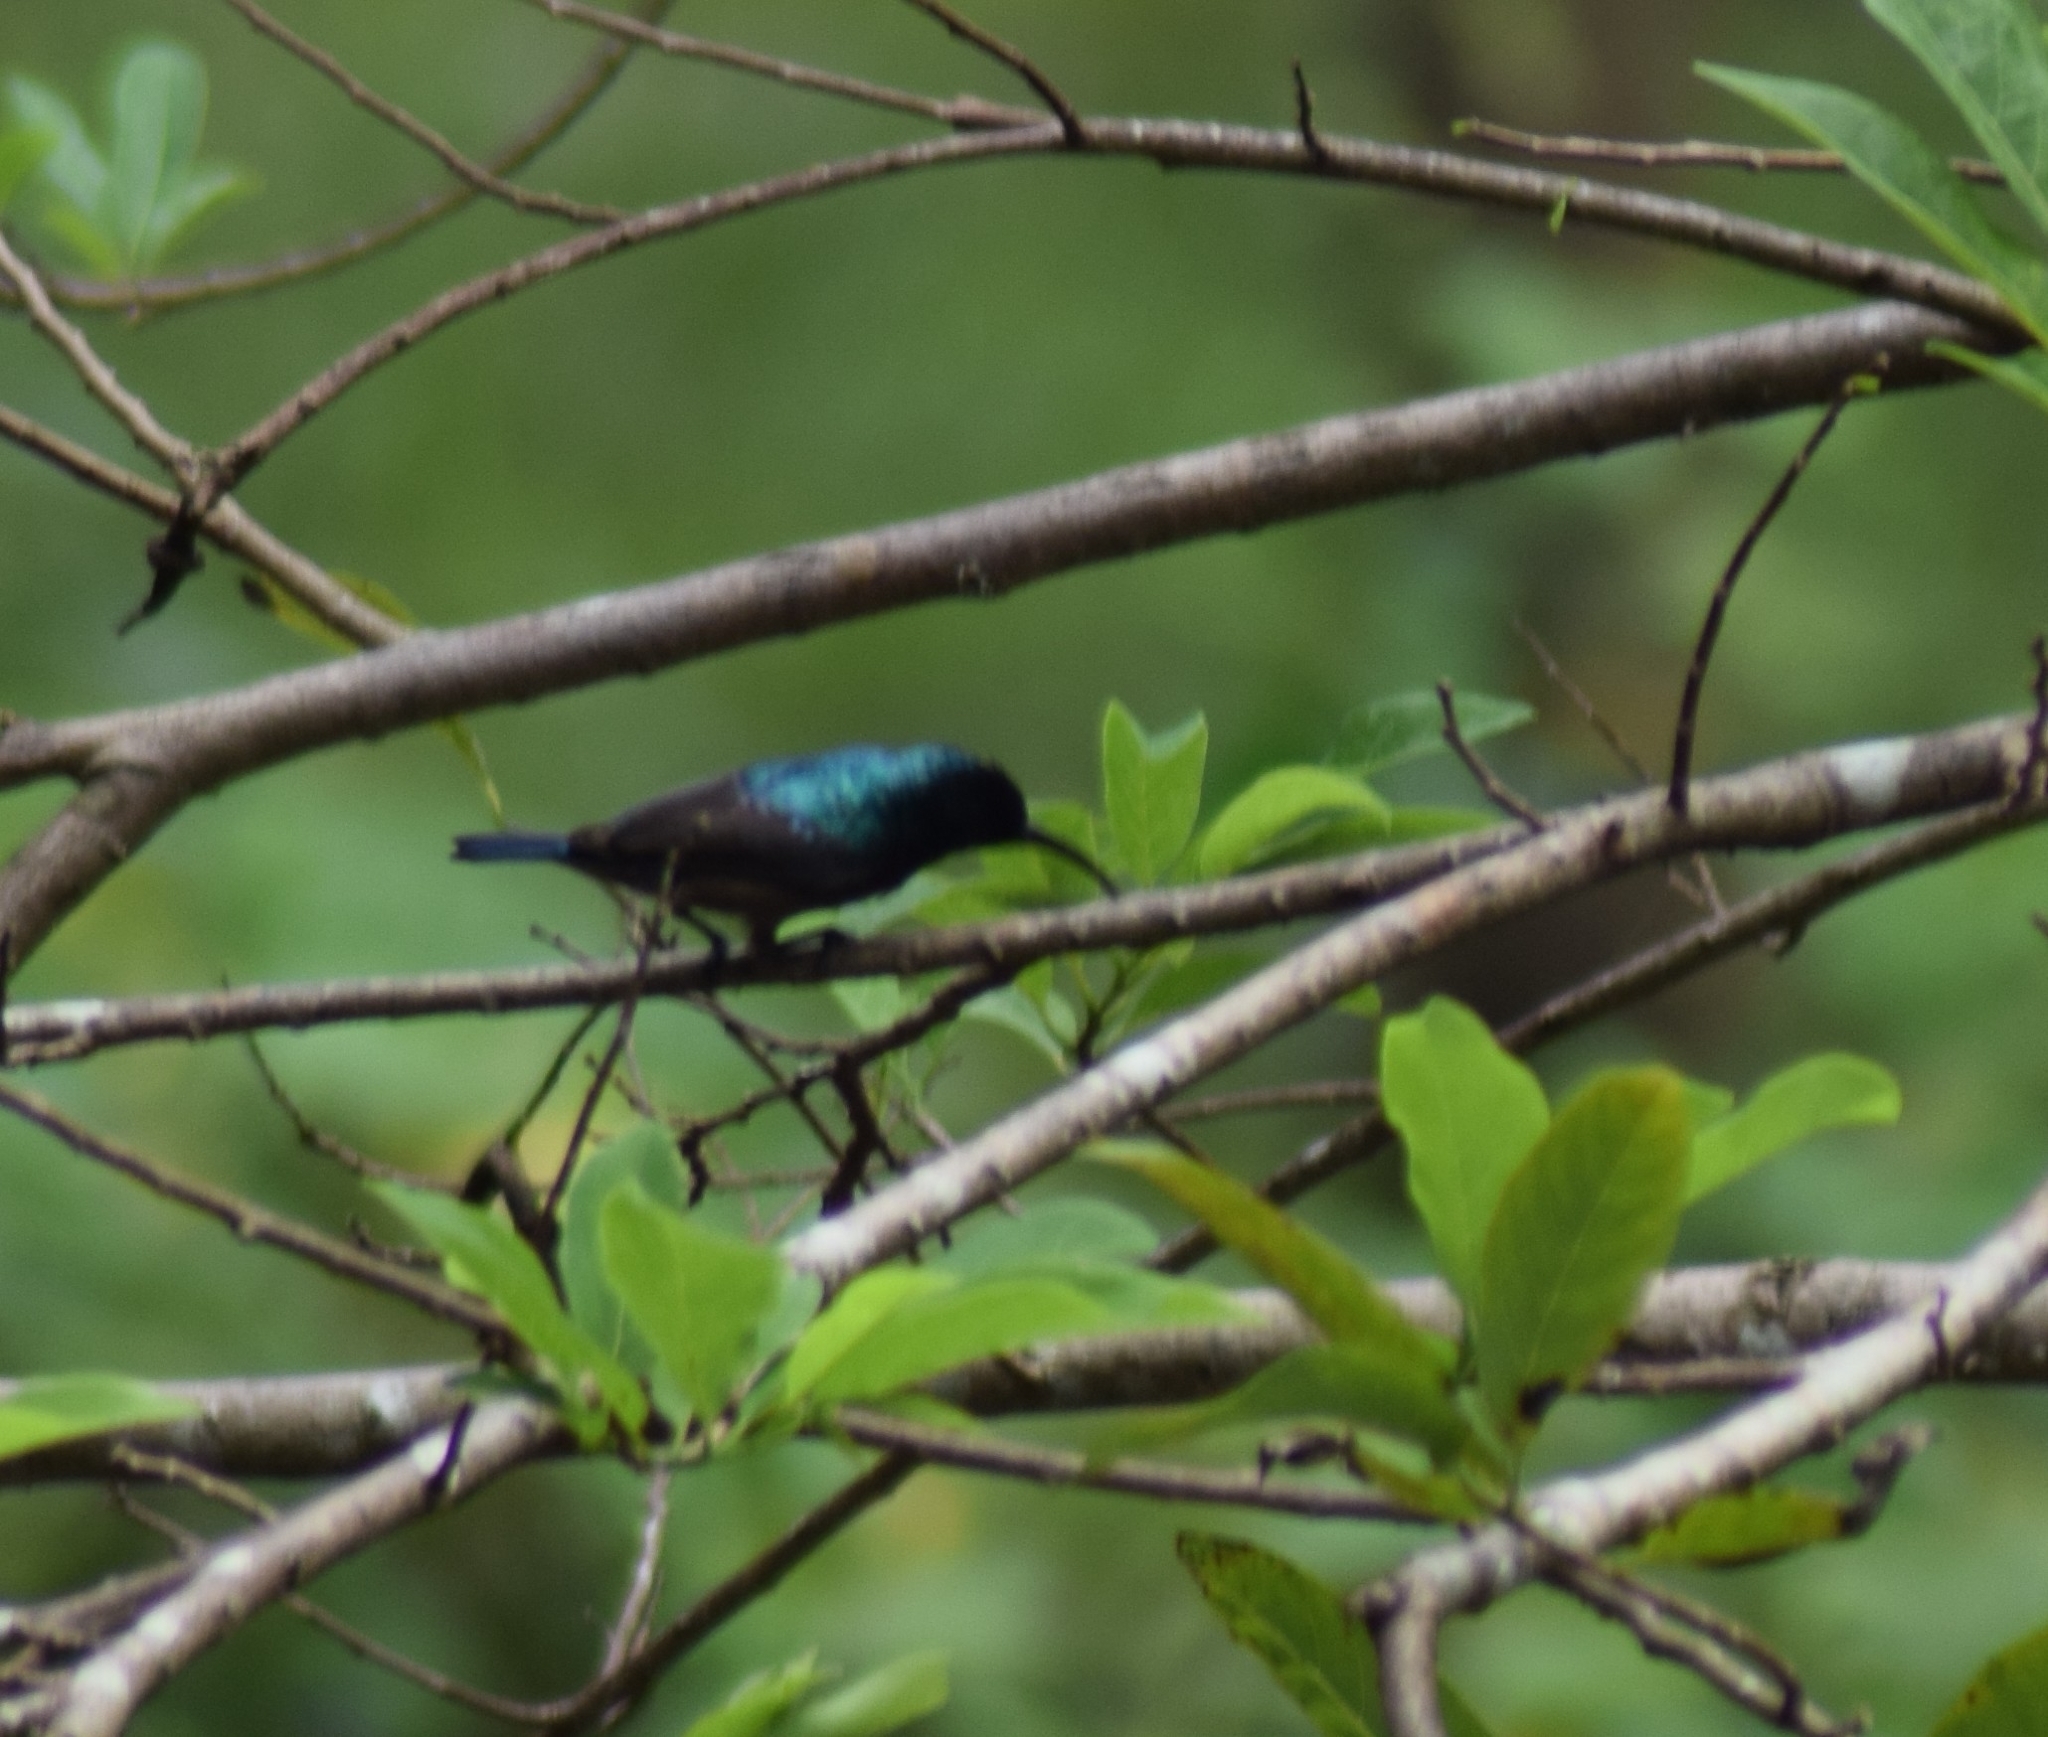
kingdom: Animalia
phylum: Chordata
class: Aves
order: Passeriformes
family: Nectariniidae
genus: Cinnyris
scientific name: Cinnyris lotenius
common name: Loten's sunbird
